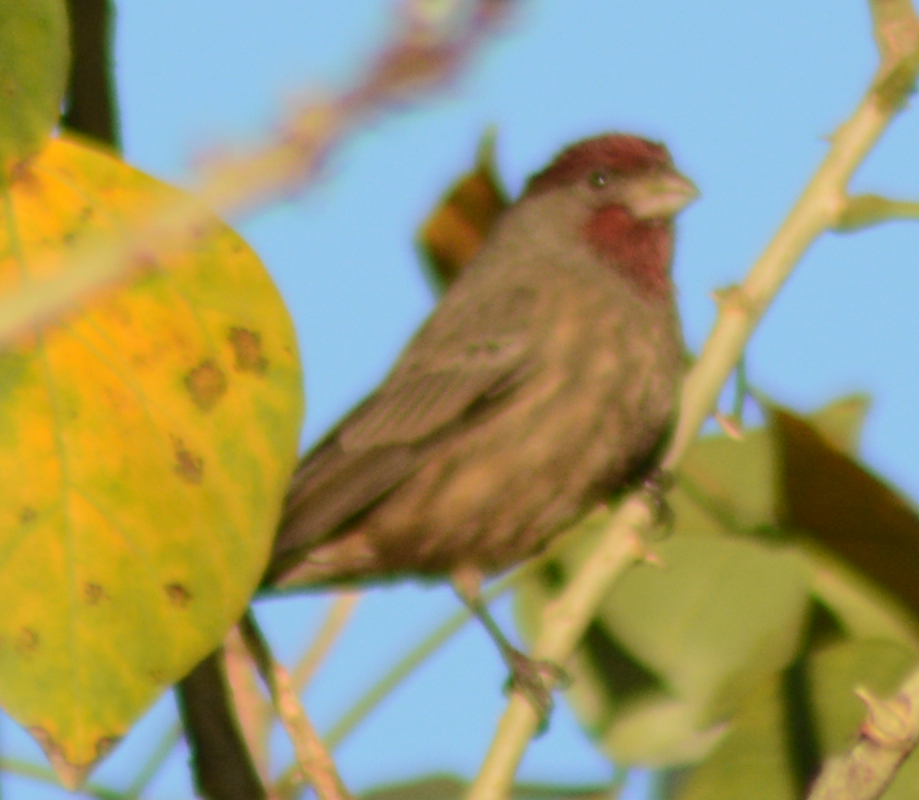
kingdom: Animalia
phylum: Chordata
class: Aves
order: Passeriformes
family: Fringillidae
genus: Haemorhous
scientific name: Haemorhous mexicanus
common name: House finch
